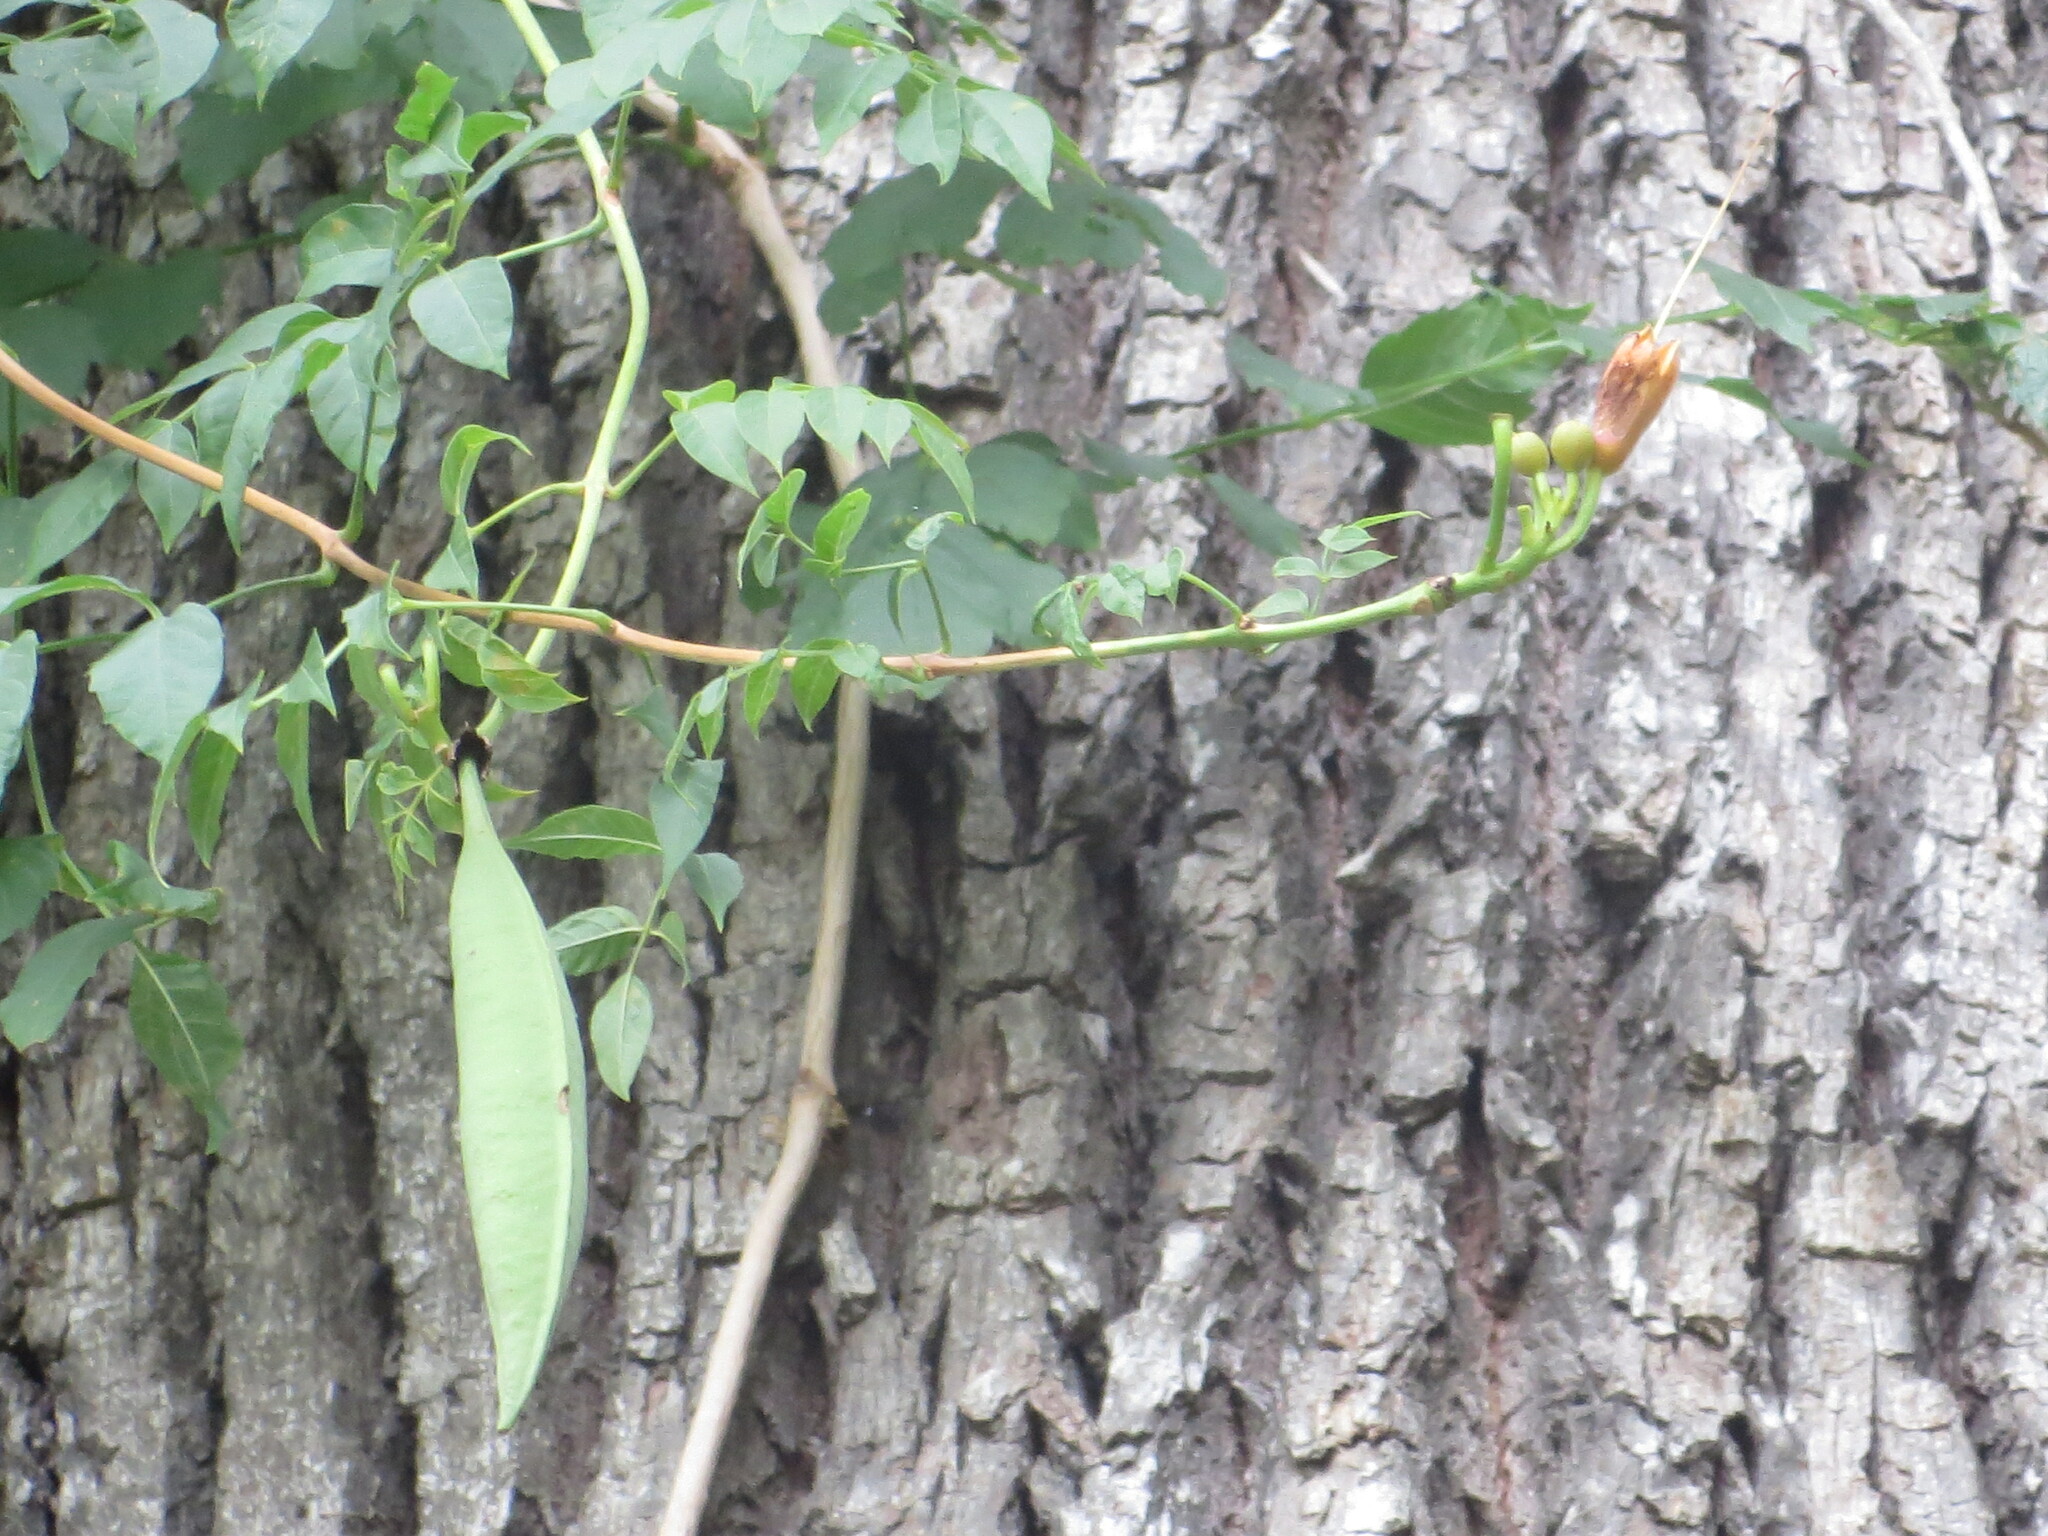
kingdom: Plantae
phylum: Tracheophyta
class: Magnoliopsida
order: Lamiales
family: Bignoniaceae
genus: Campsis
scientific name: Campsis radicans
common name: Trumpet-creeper
